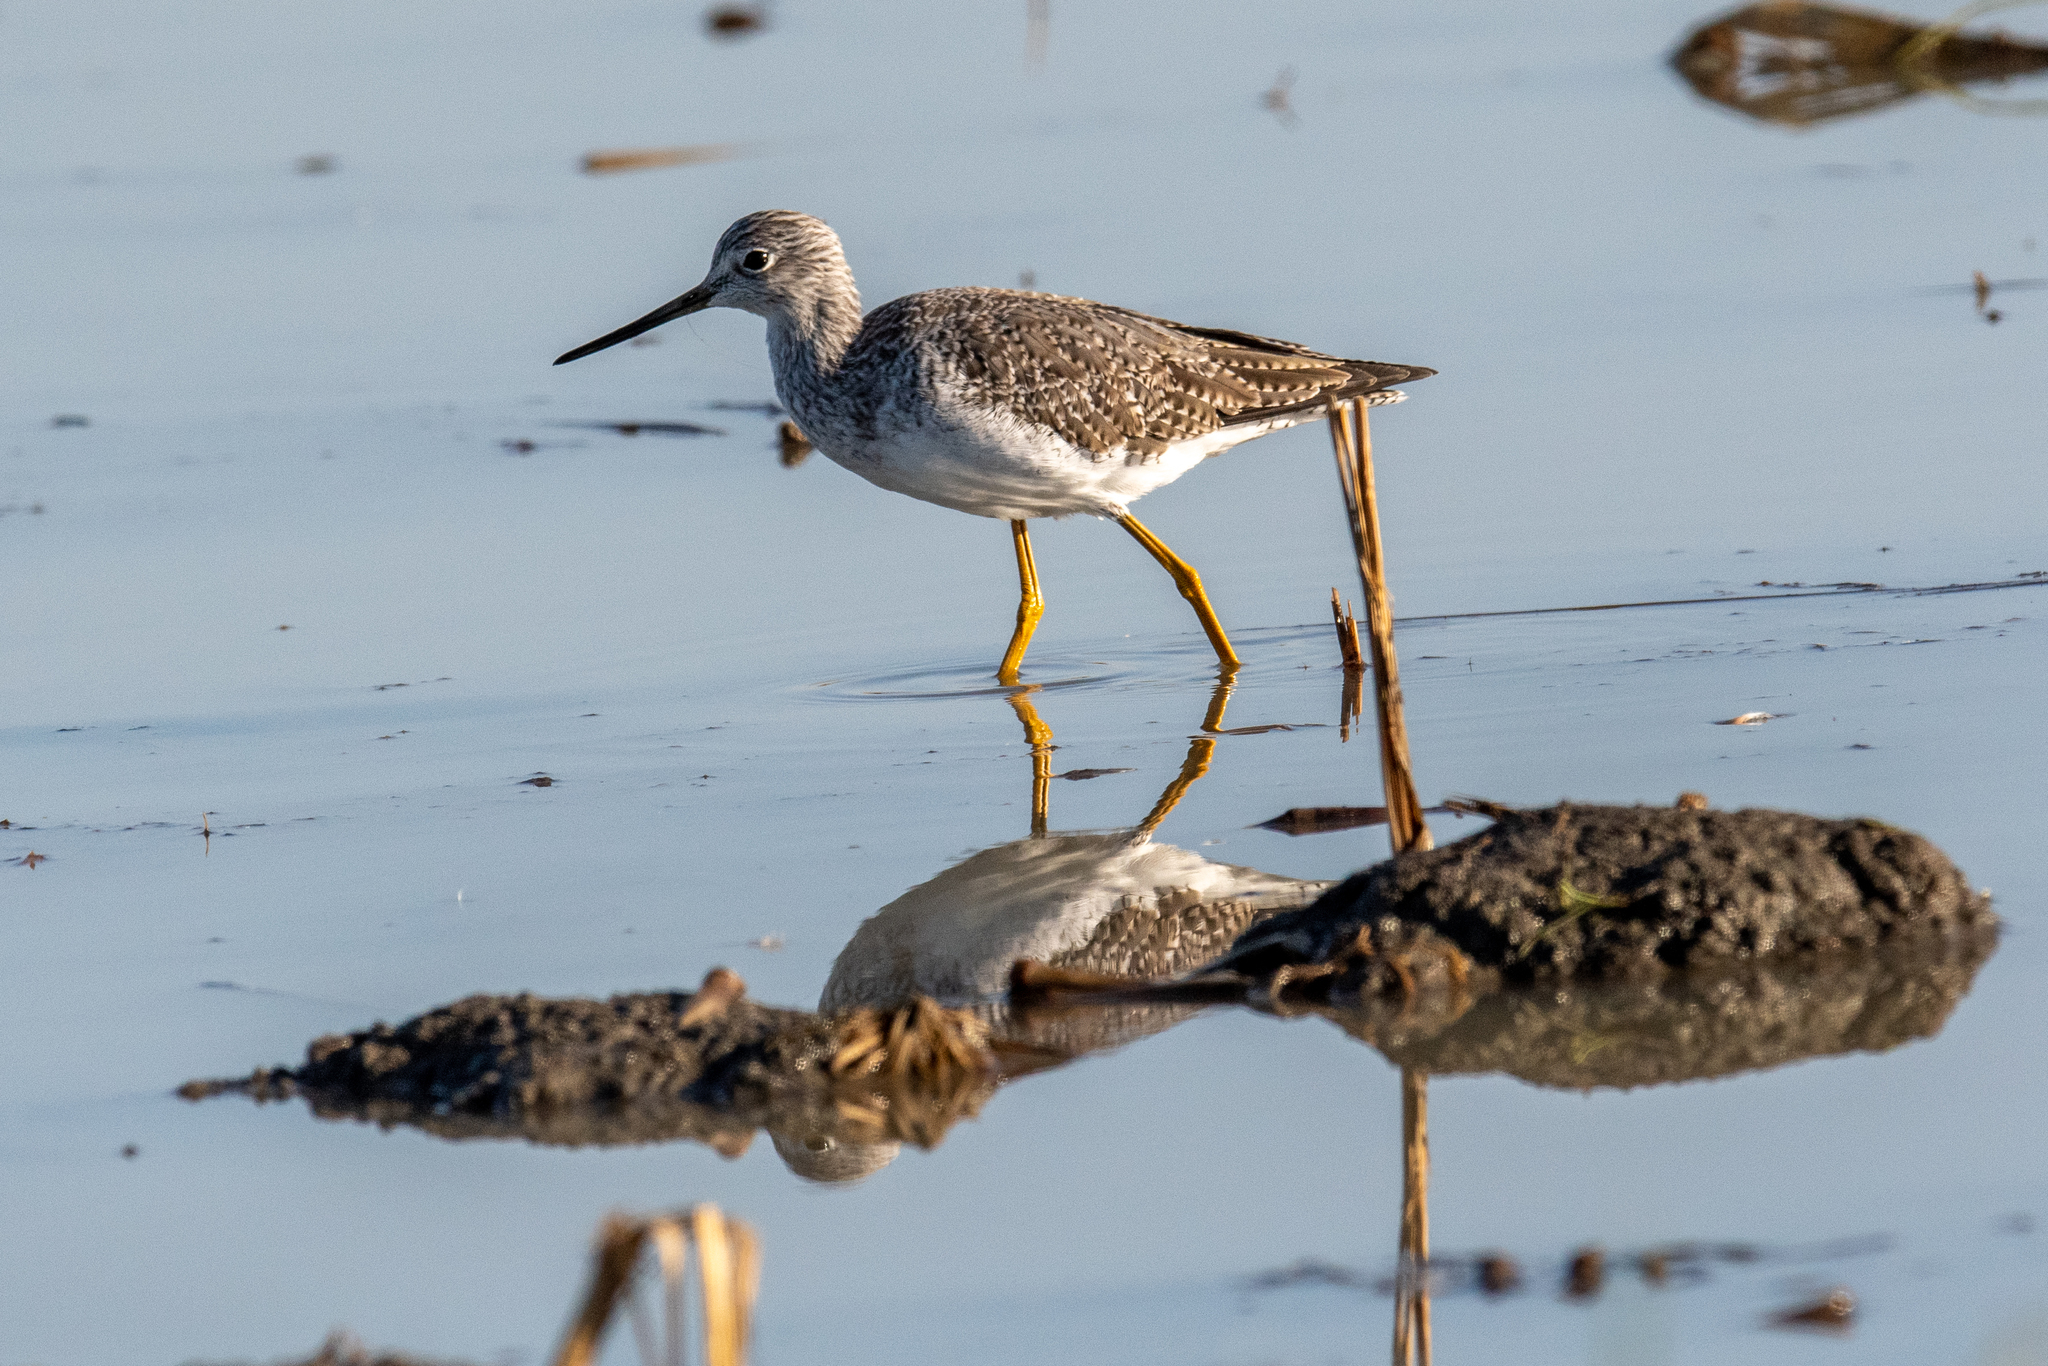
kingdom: Animalia
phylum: Chordata
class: Aves
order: Charadriiformes
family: Scolopacidae
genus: Tringa
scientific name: Tringa melanoleuca
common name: Greater yellowlegs
